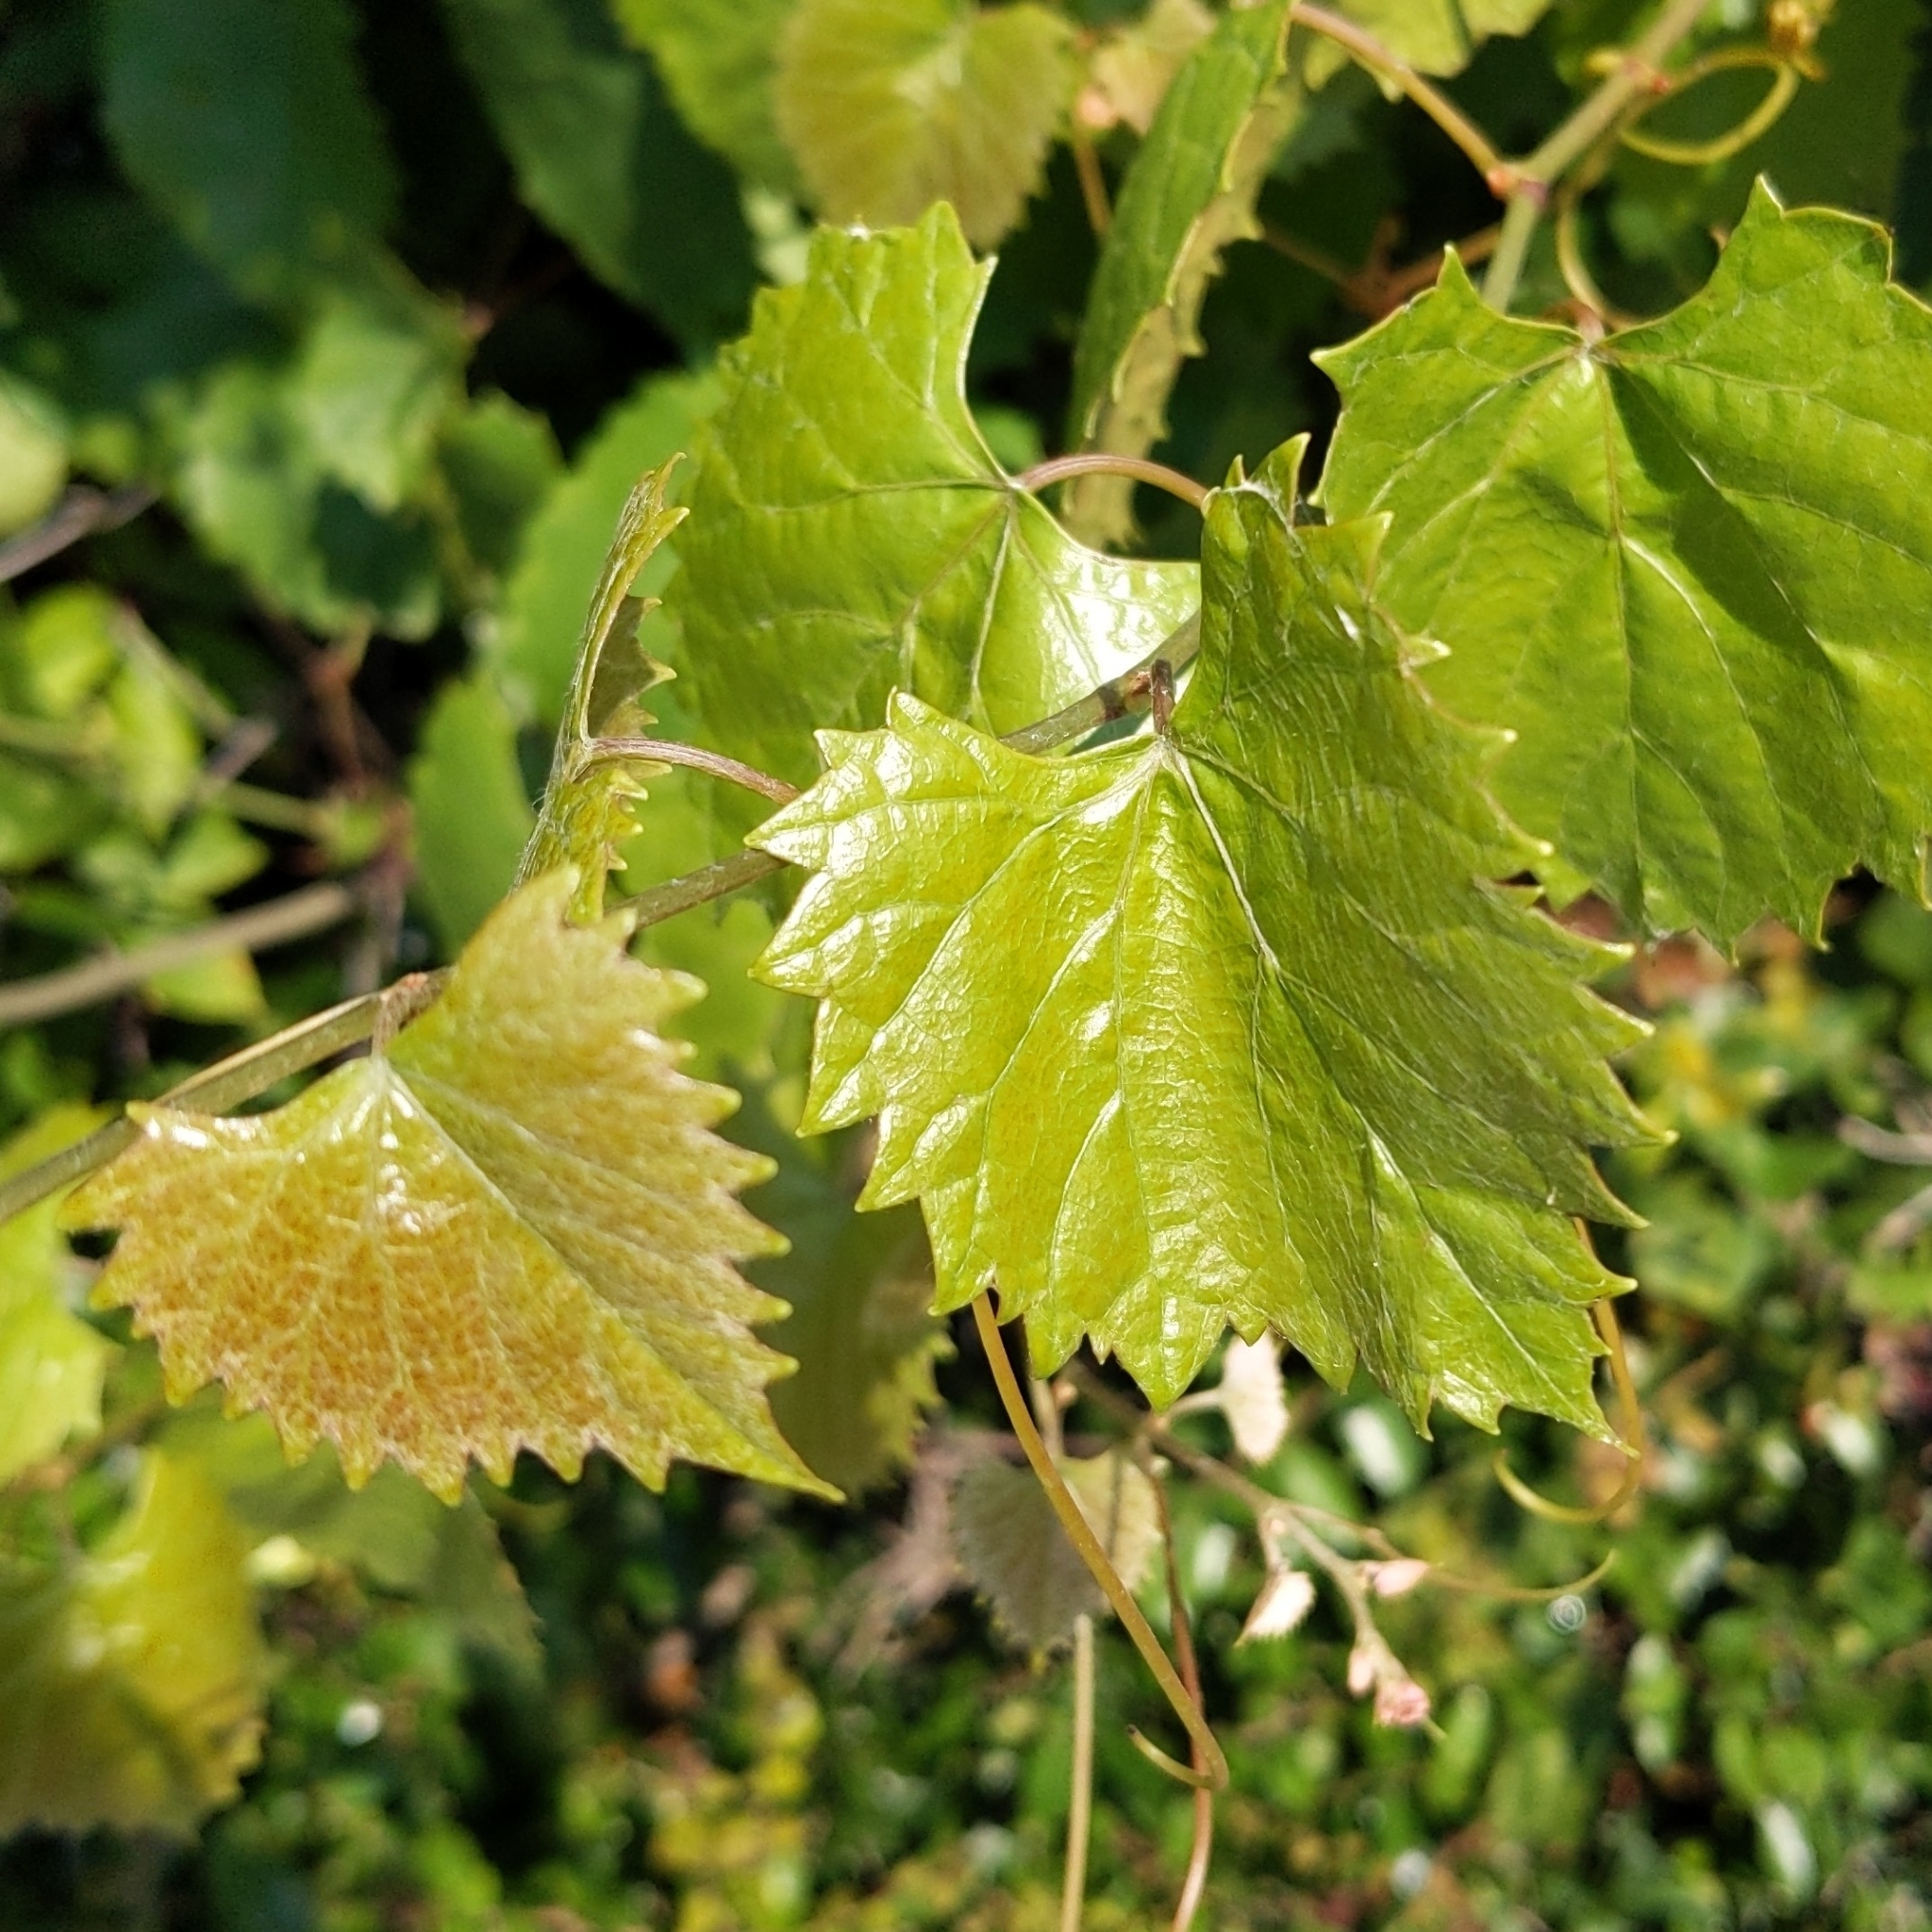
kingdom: Plantae
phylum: Tracheophyta
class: Magnoliopsida
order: Vitales
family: Vitaceae
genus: Vitis
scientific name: Vitis rotundifolia
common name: Muscadine grape
